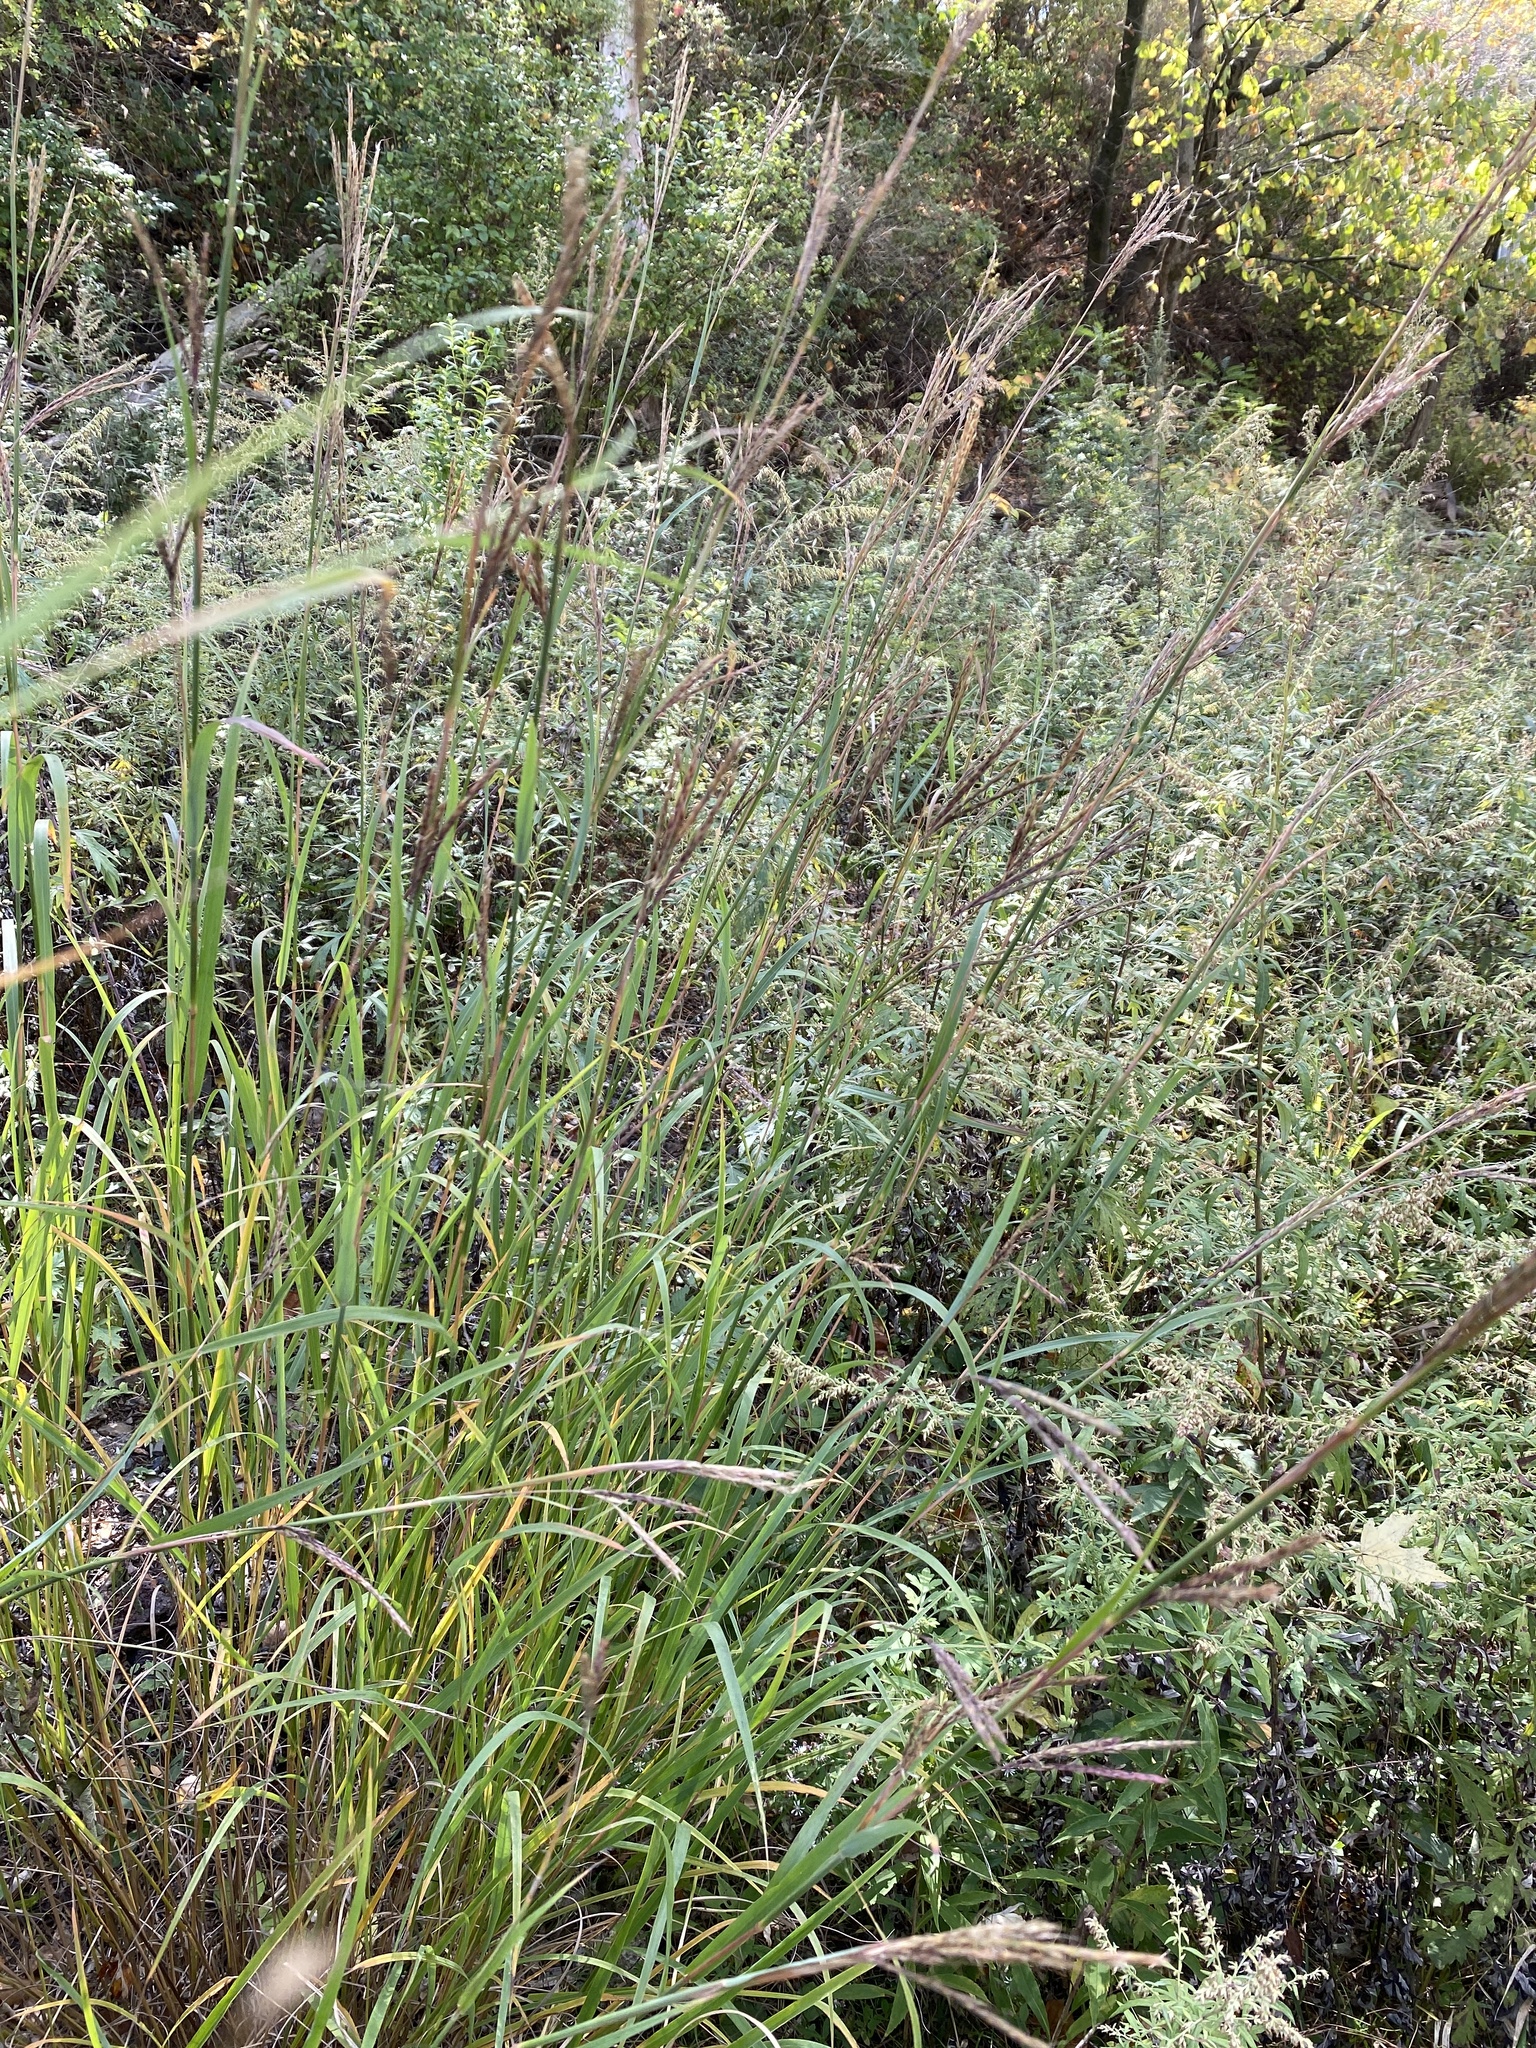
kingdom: Plantae
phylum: Tracheophyta
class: Liliopsida
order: Poales
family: Poaceae
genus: Andropogon
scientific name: Andropogon gerardi
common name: Big bluestem
